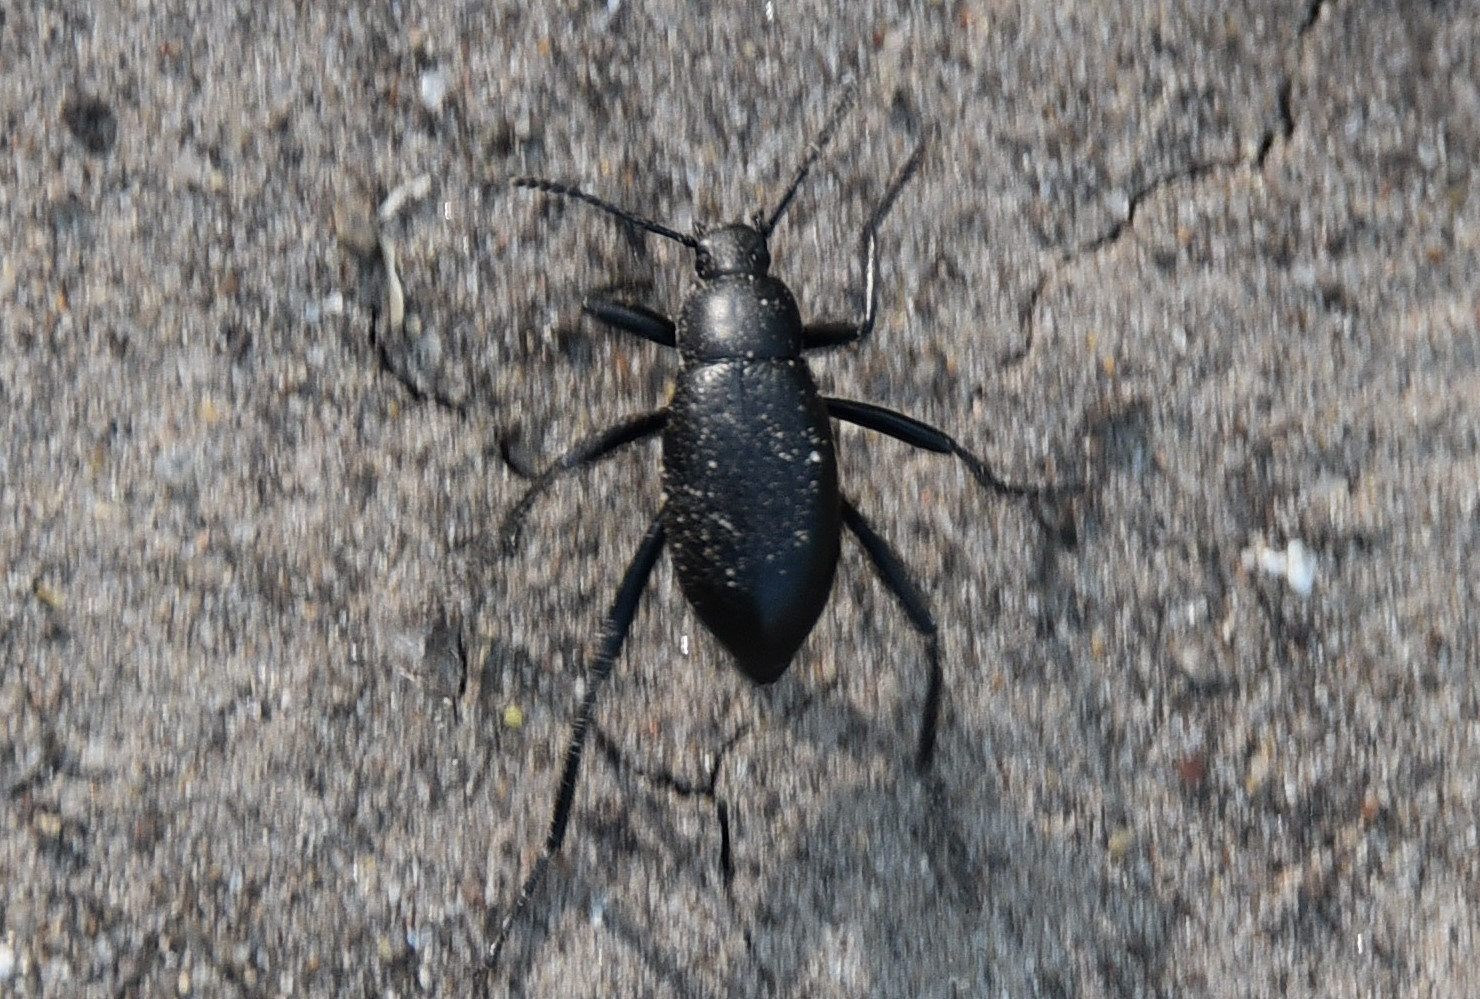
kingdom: Animalia
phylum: Arthropoda
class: Insecta
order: Coleoptera
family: Tenebrionidae
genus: Eleodes
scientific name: Eleodes goryi
